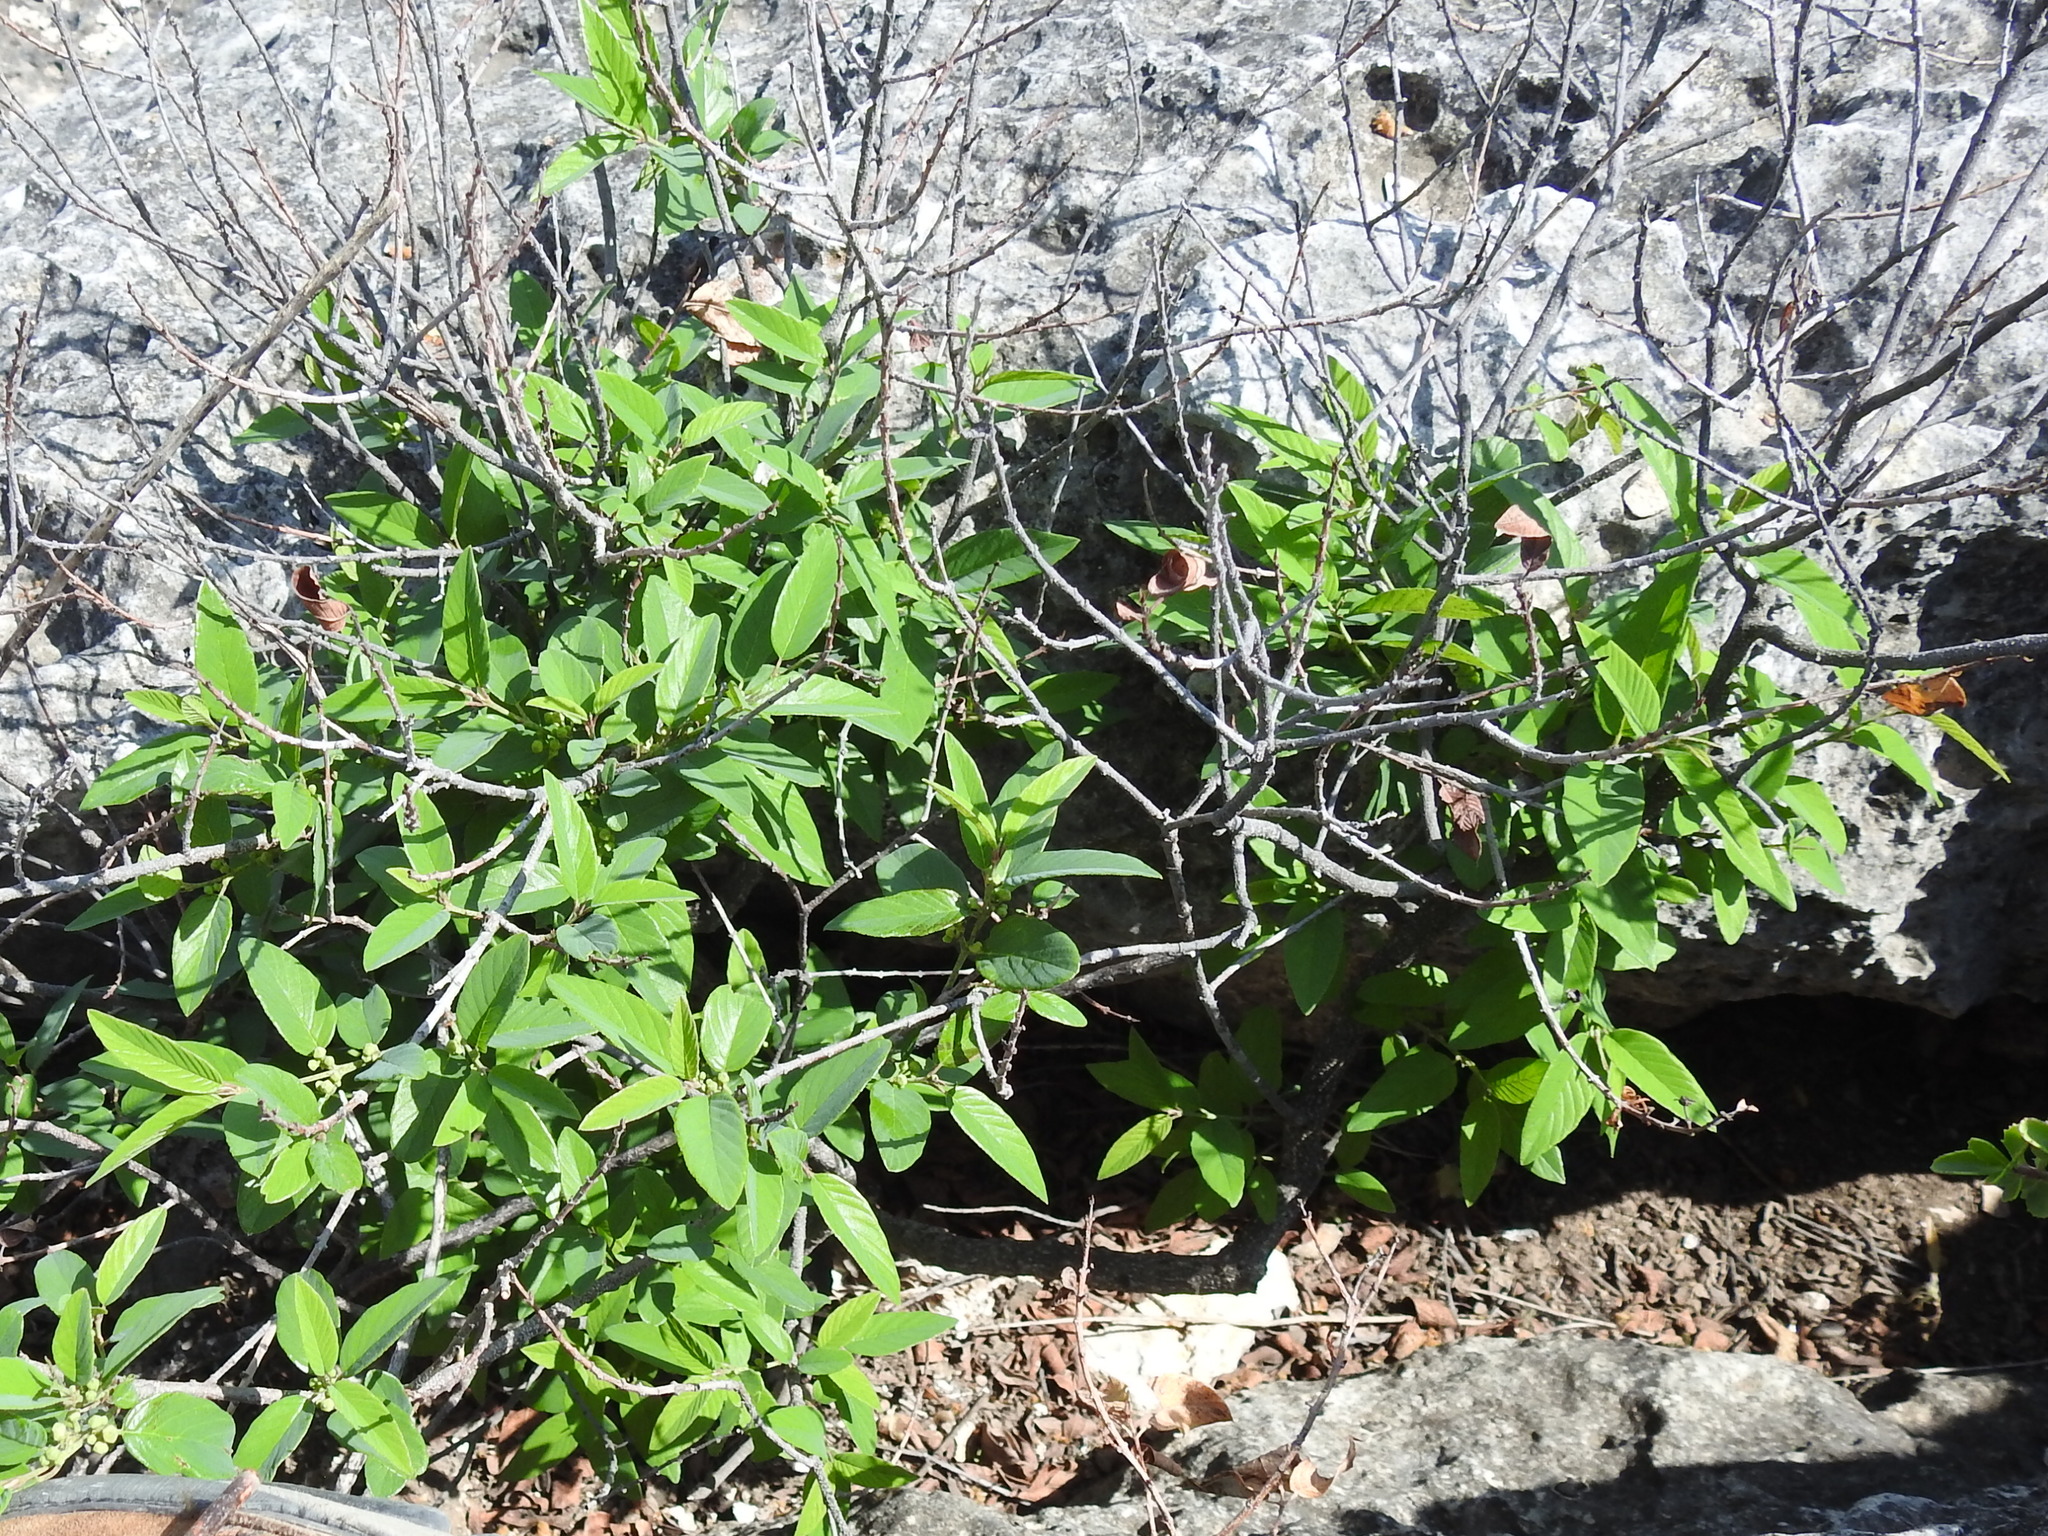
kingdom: Plantae
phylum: Tracheophyta
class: Magnoliopsida
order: Rosales
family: Rhamnaceae
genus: Karwinskia
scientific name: Karwinskia humboldtiana
